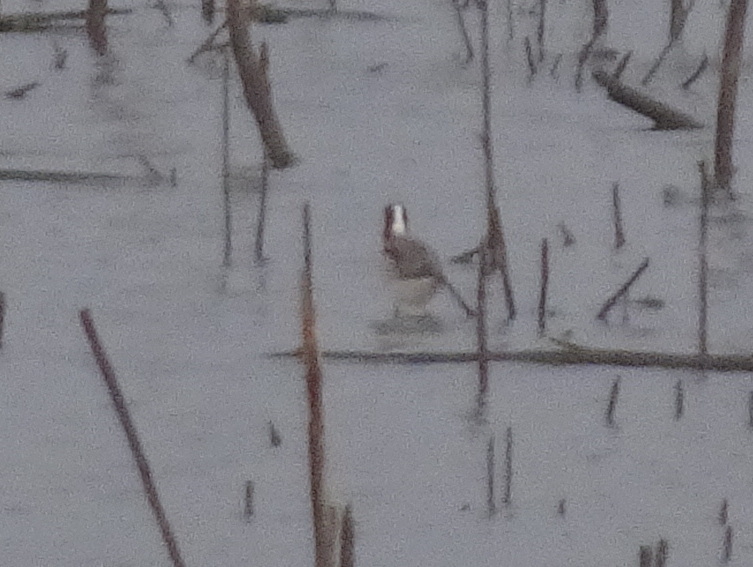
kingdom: Animalia
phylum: Chordata
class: Aves
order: Charadriiformes
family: Scolopacidae
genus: Phalaropus
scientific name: Phalaropus tricolor
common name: Wilson's phalarope
